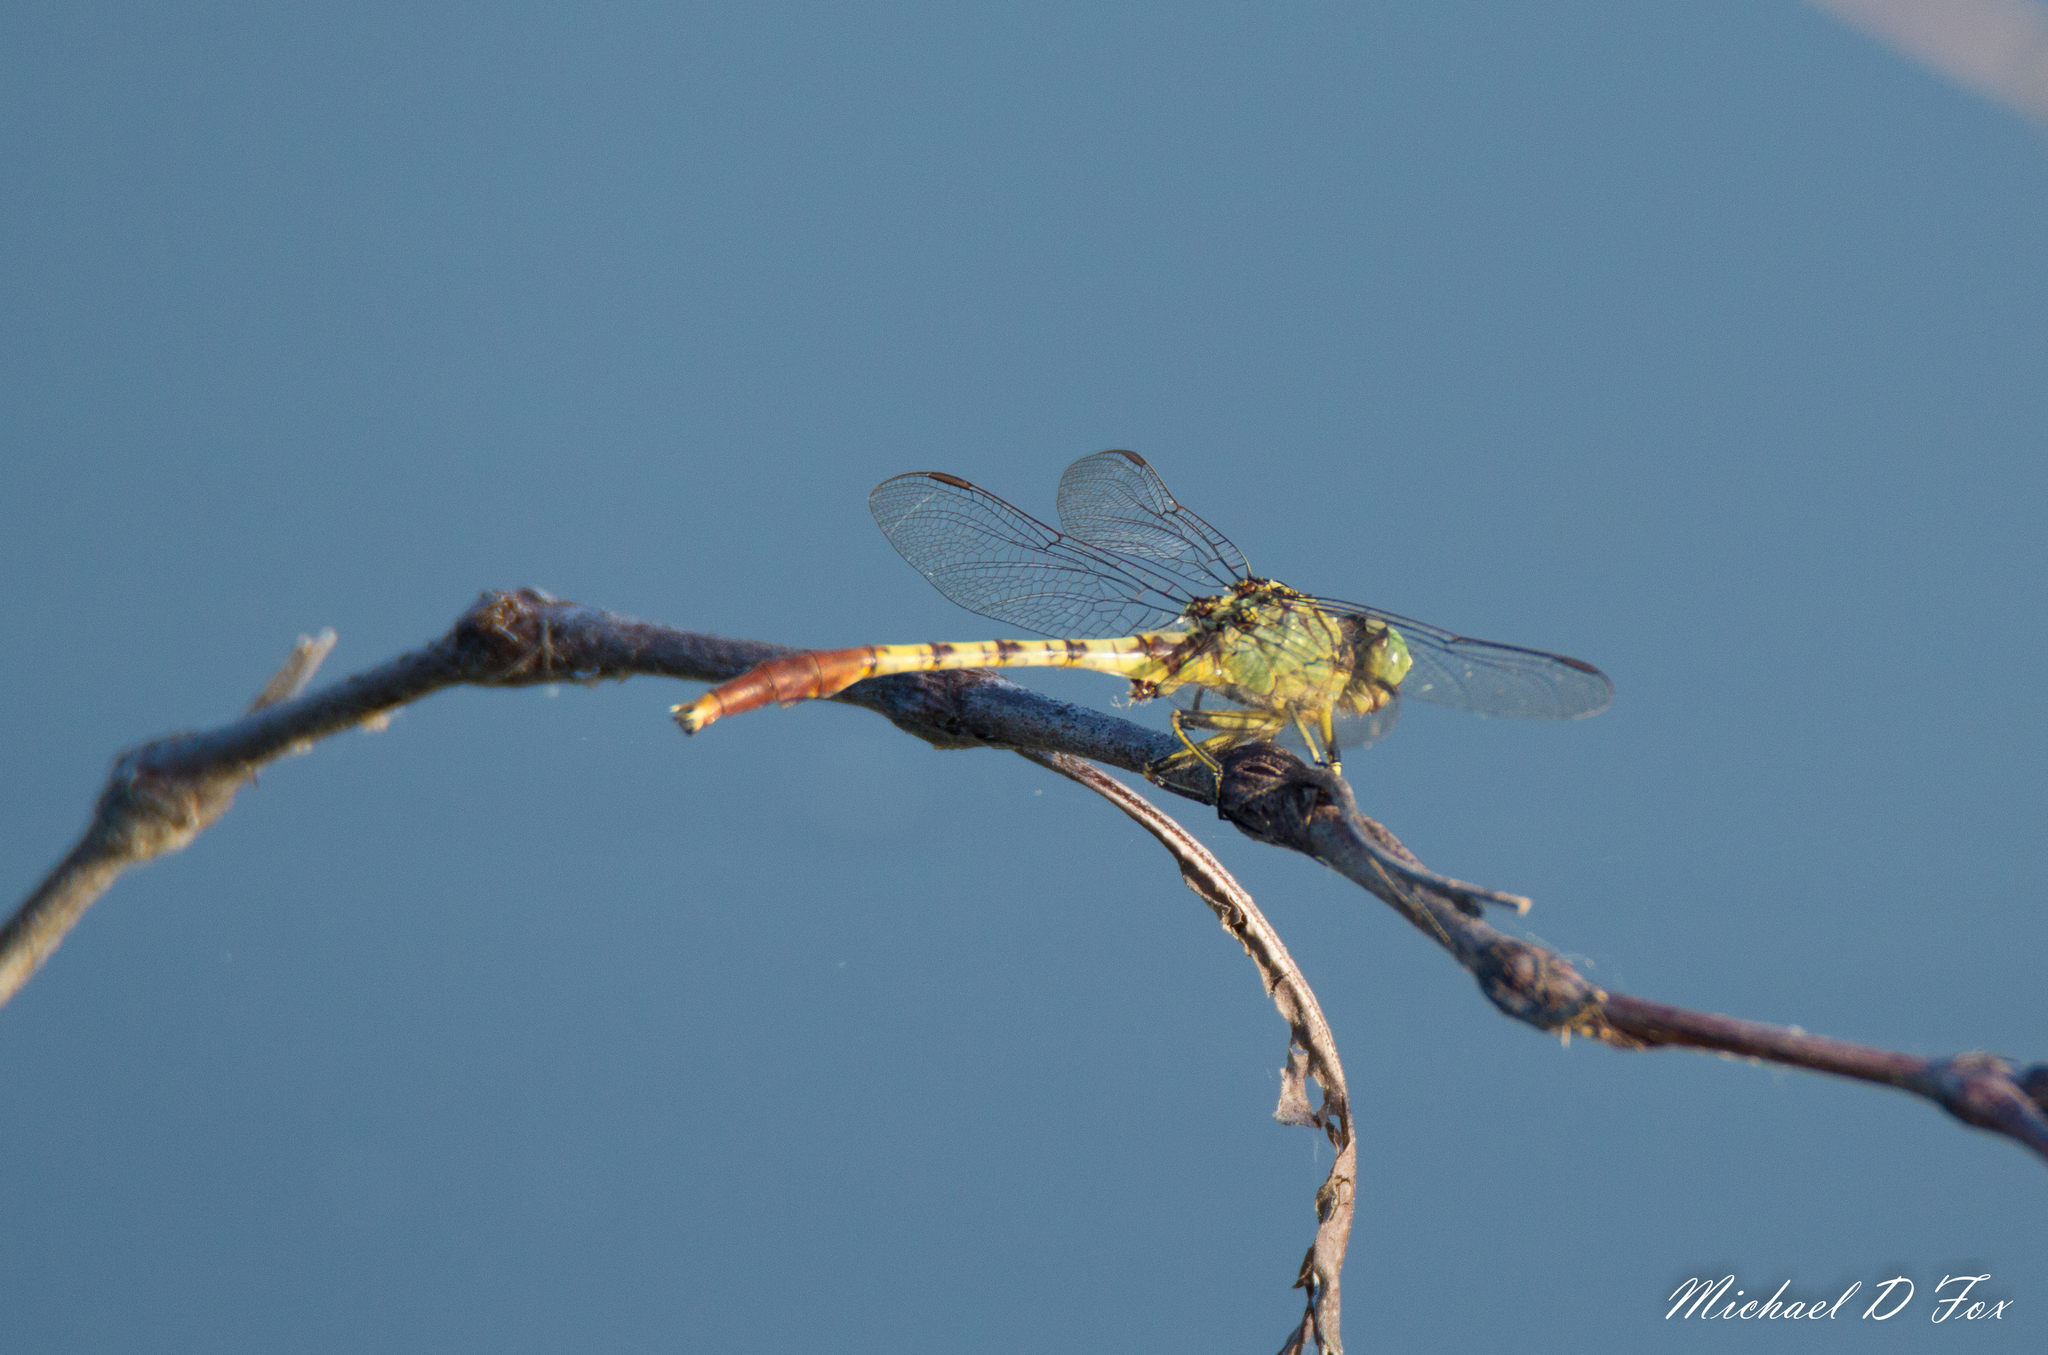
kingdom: Animalia
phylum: Arthropoda
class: Insecta
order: Odonata
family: Gomphidae
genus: Arigomphus
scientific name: Arigomphus submedianus
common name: Jade clubtail
